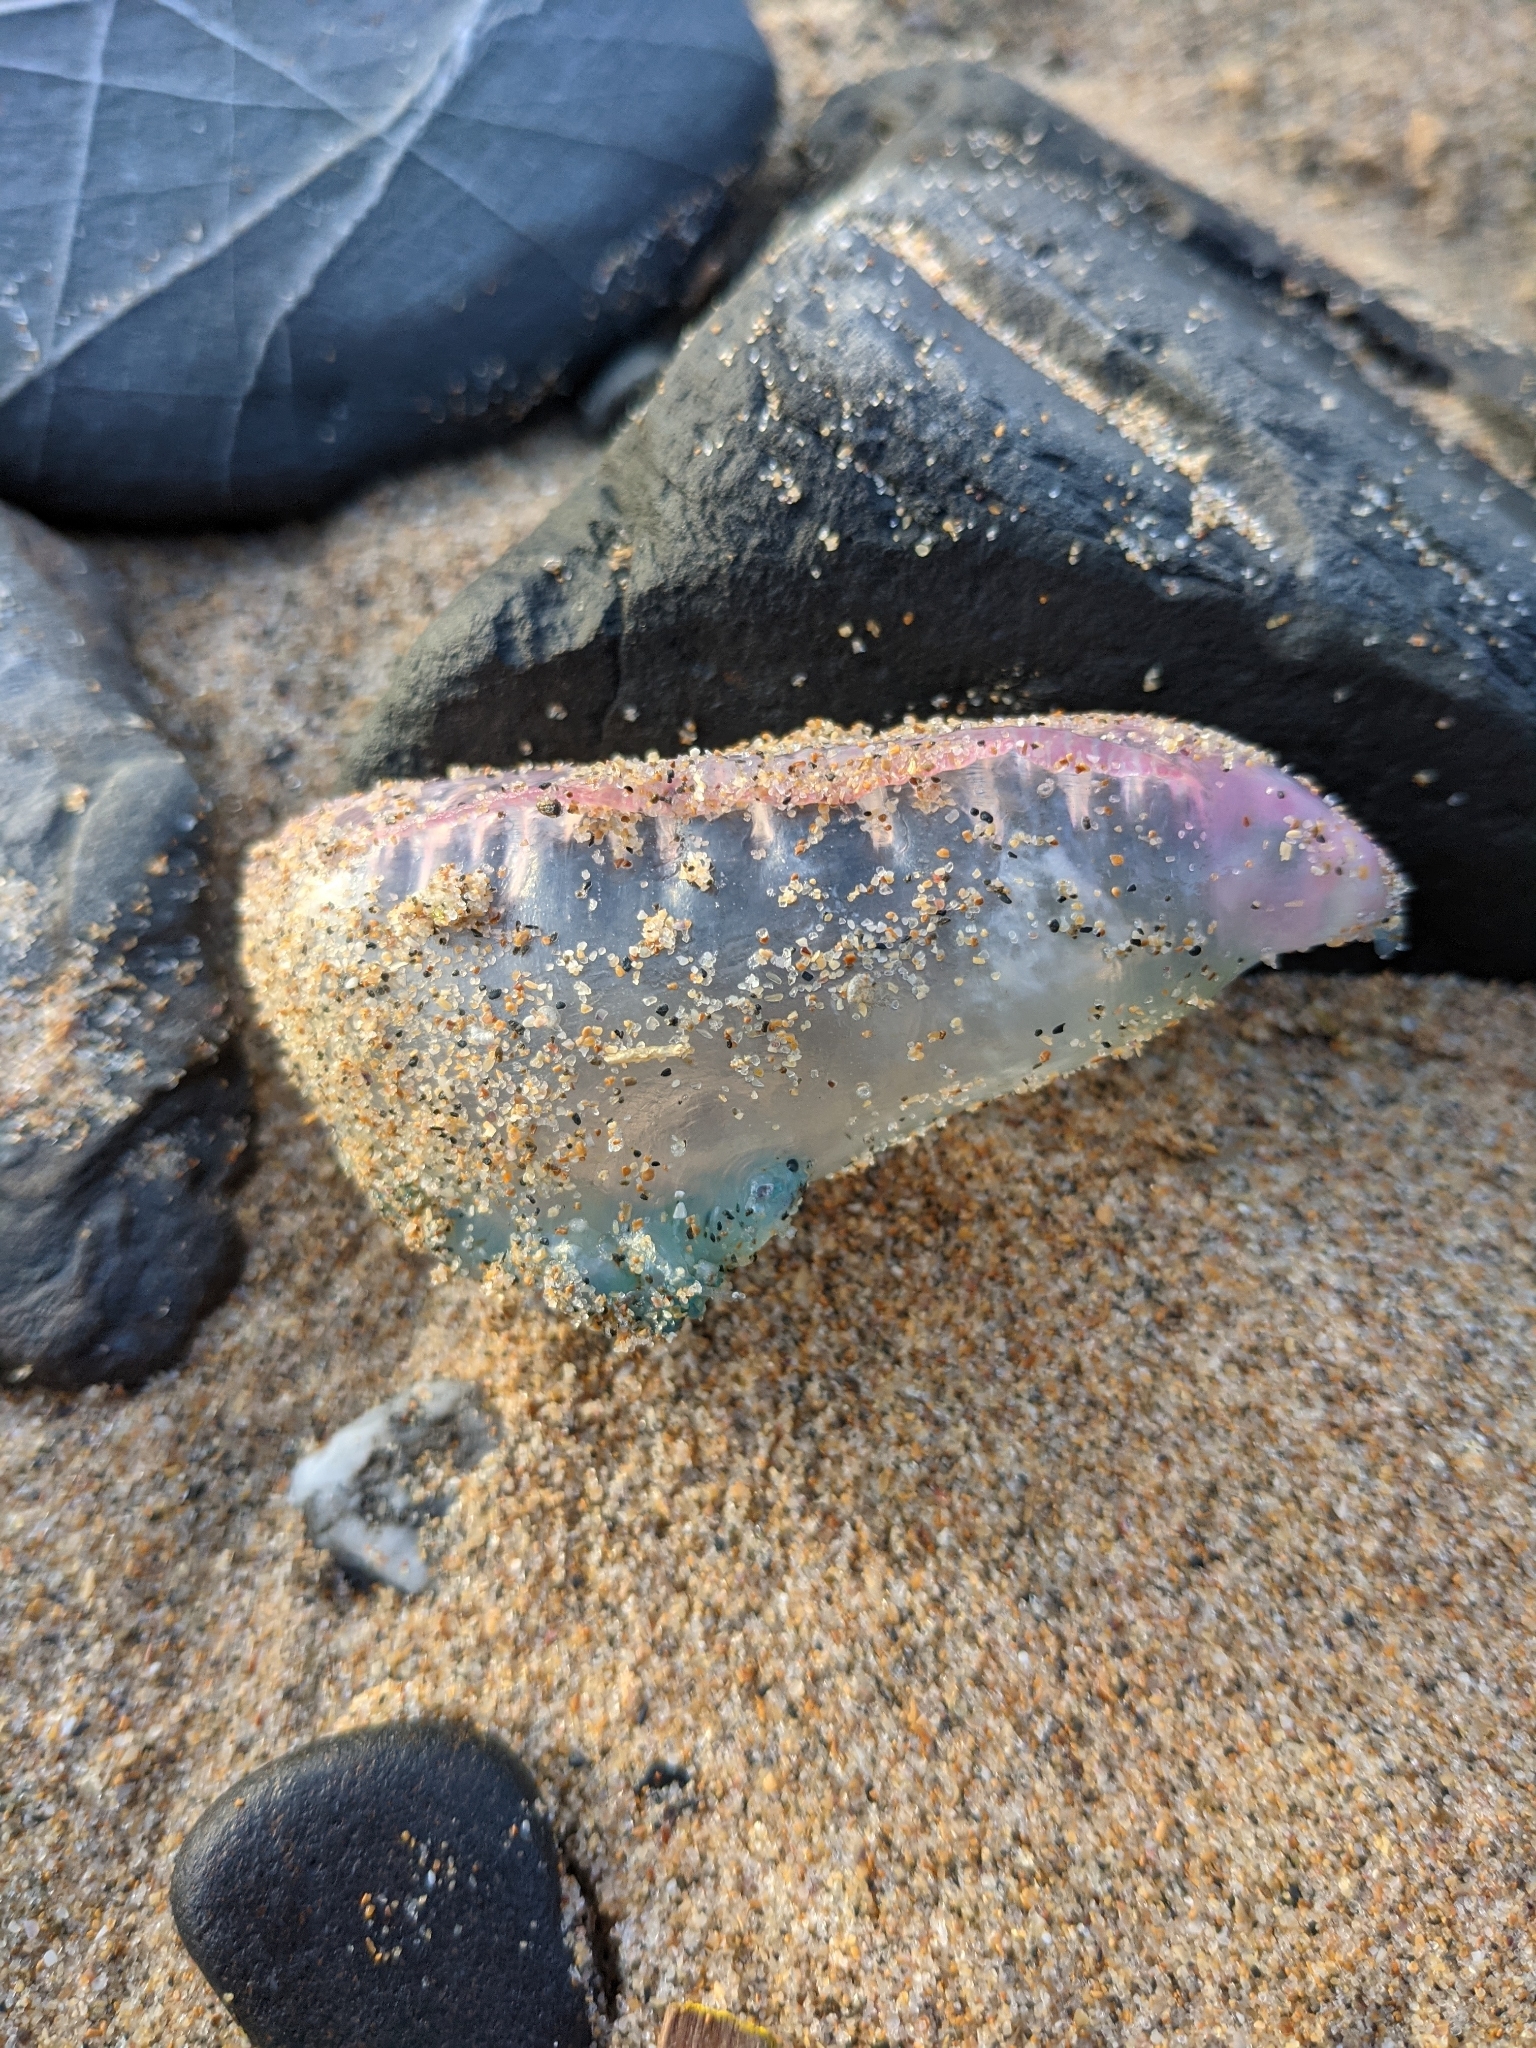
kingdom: Animalia
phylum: Cnidaria
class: Hydrozoa
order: Siphonophorae
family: Physaliidae
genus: Physalia
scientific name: Physalia physalis
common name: Portuguese man-of-war
